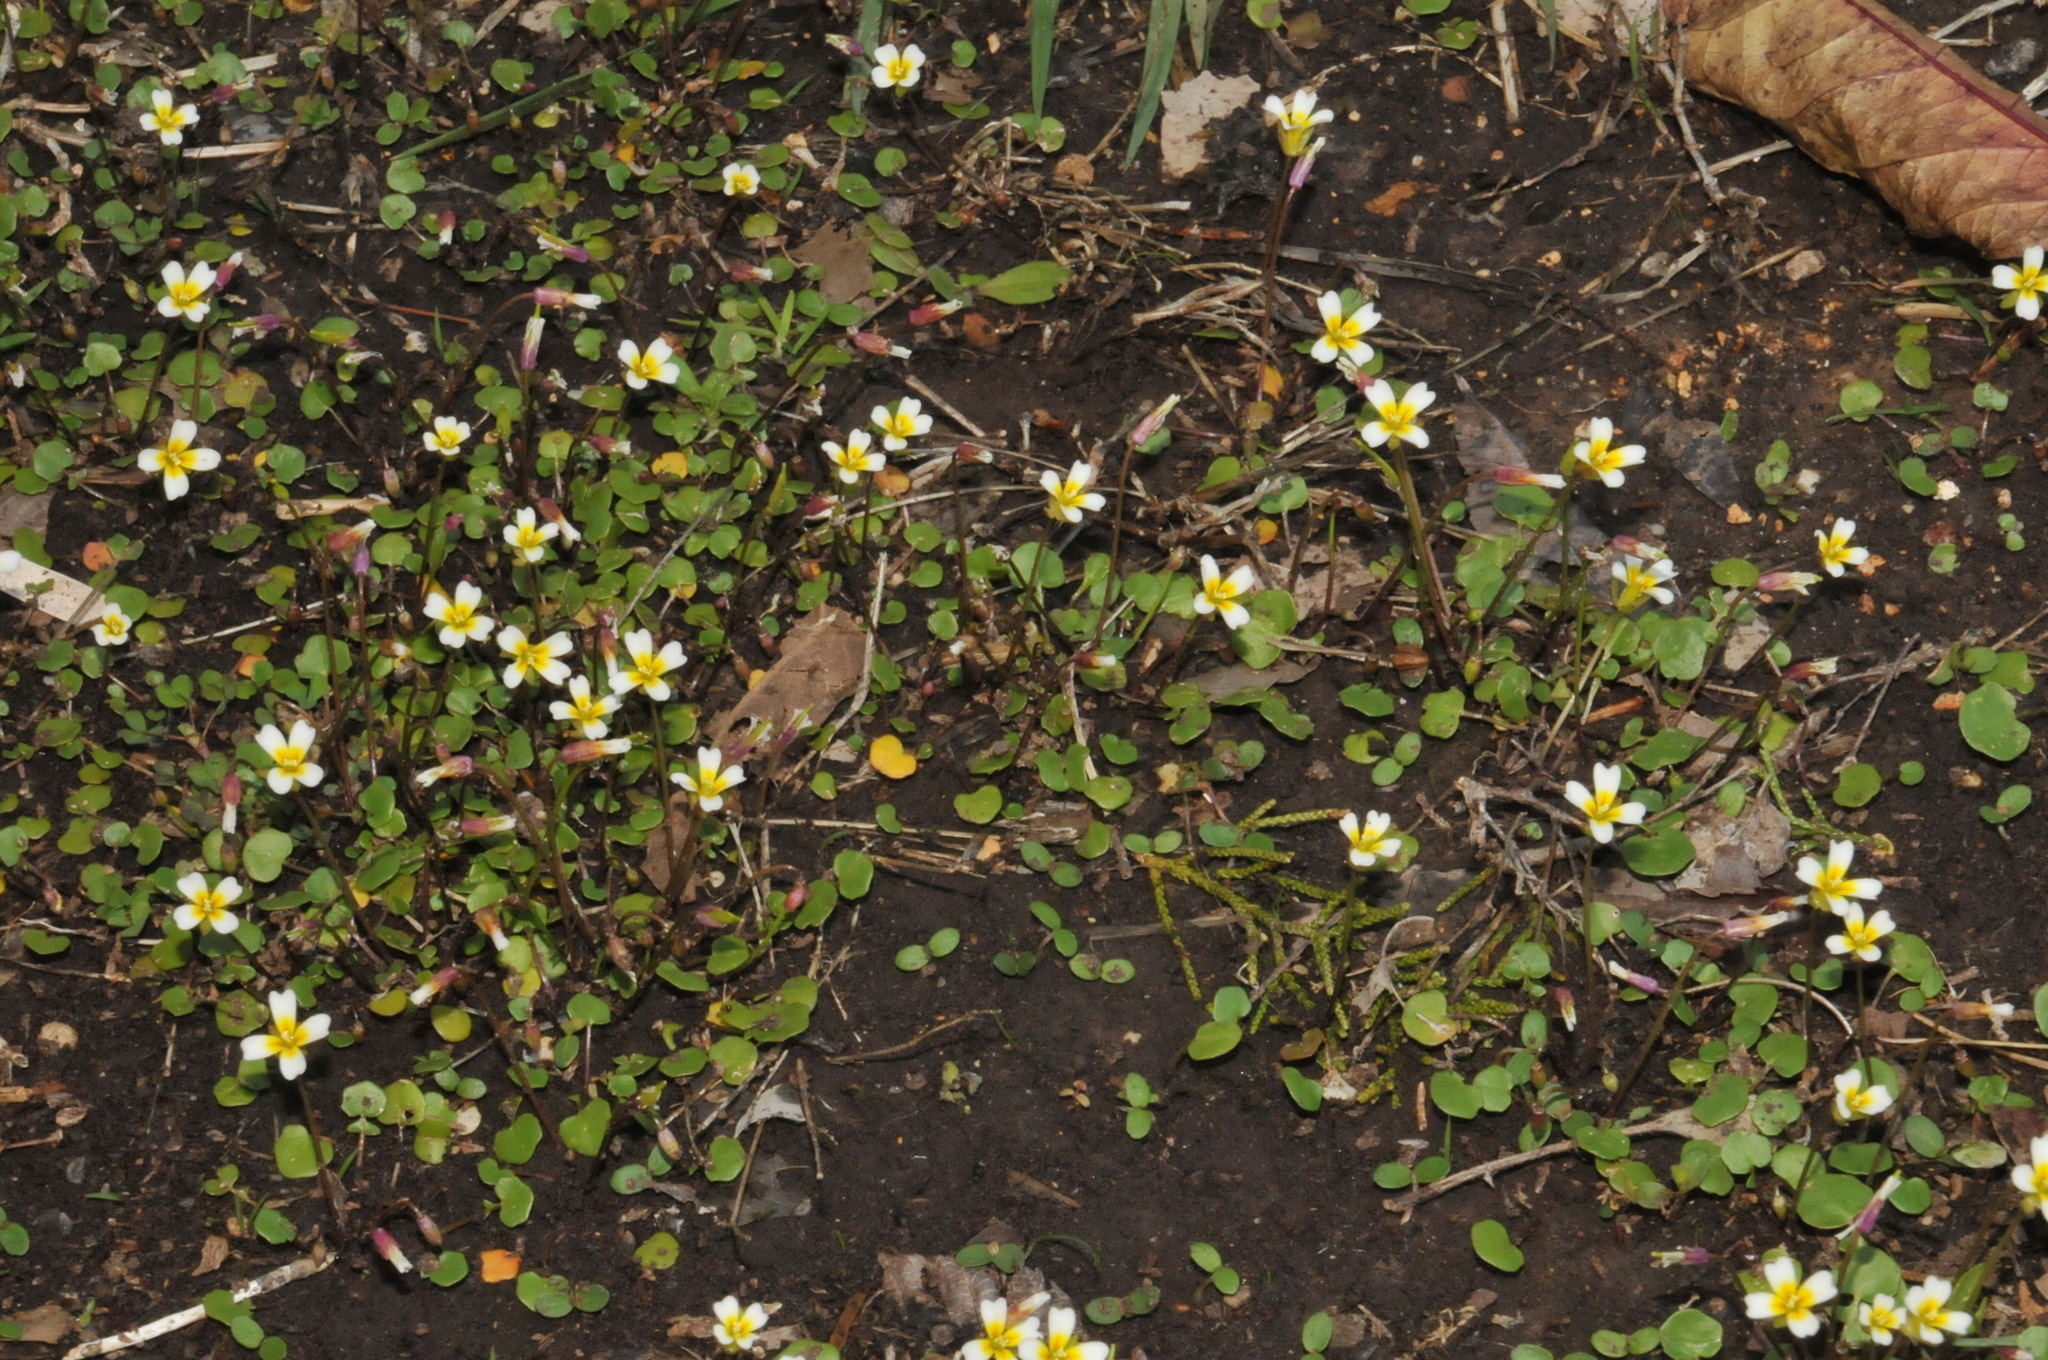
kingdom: Plantae
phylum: Tracheophyta
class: Magnoliopsida
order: Brassicales
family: Brassicaceae
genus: Leavenworthia
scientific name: Leavenworthia exigua
